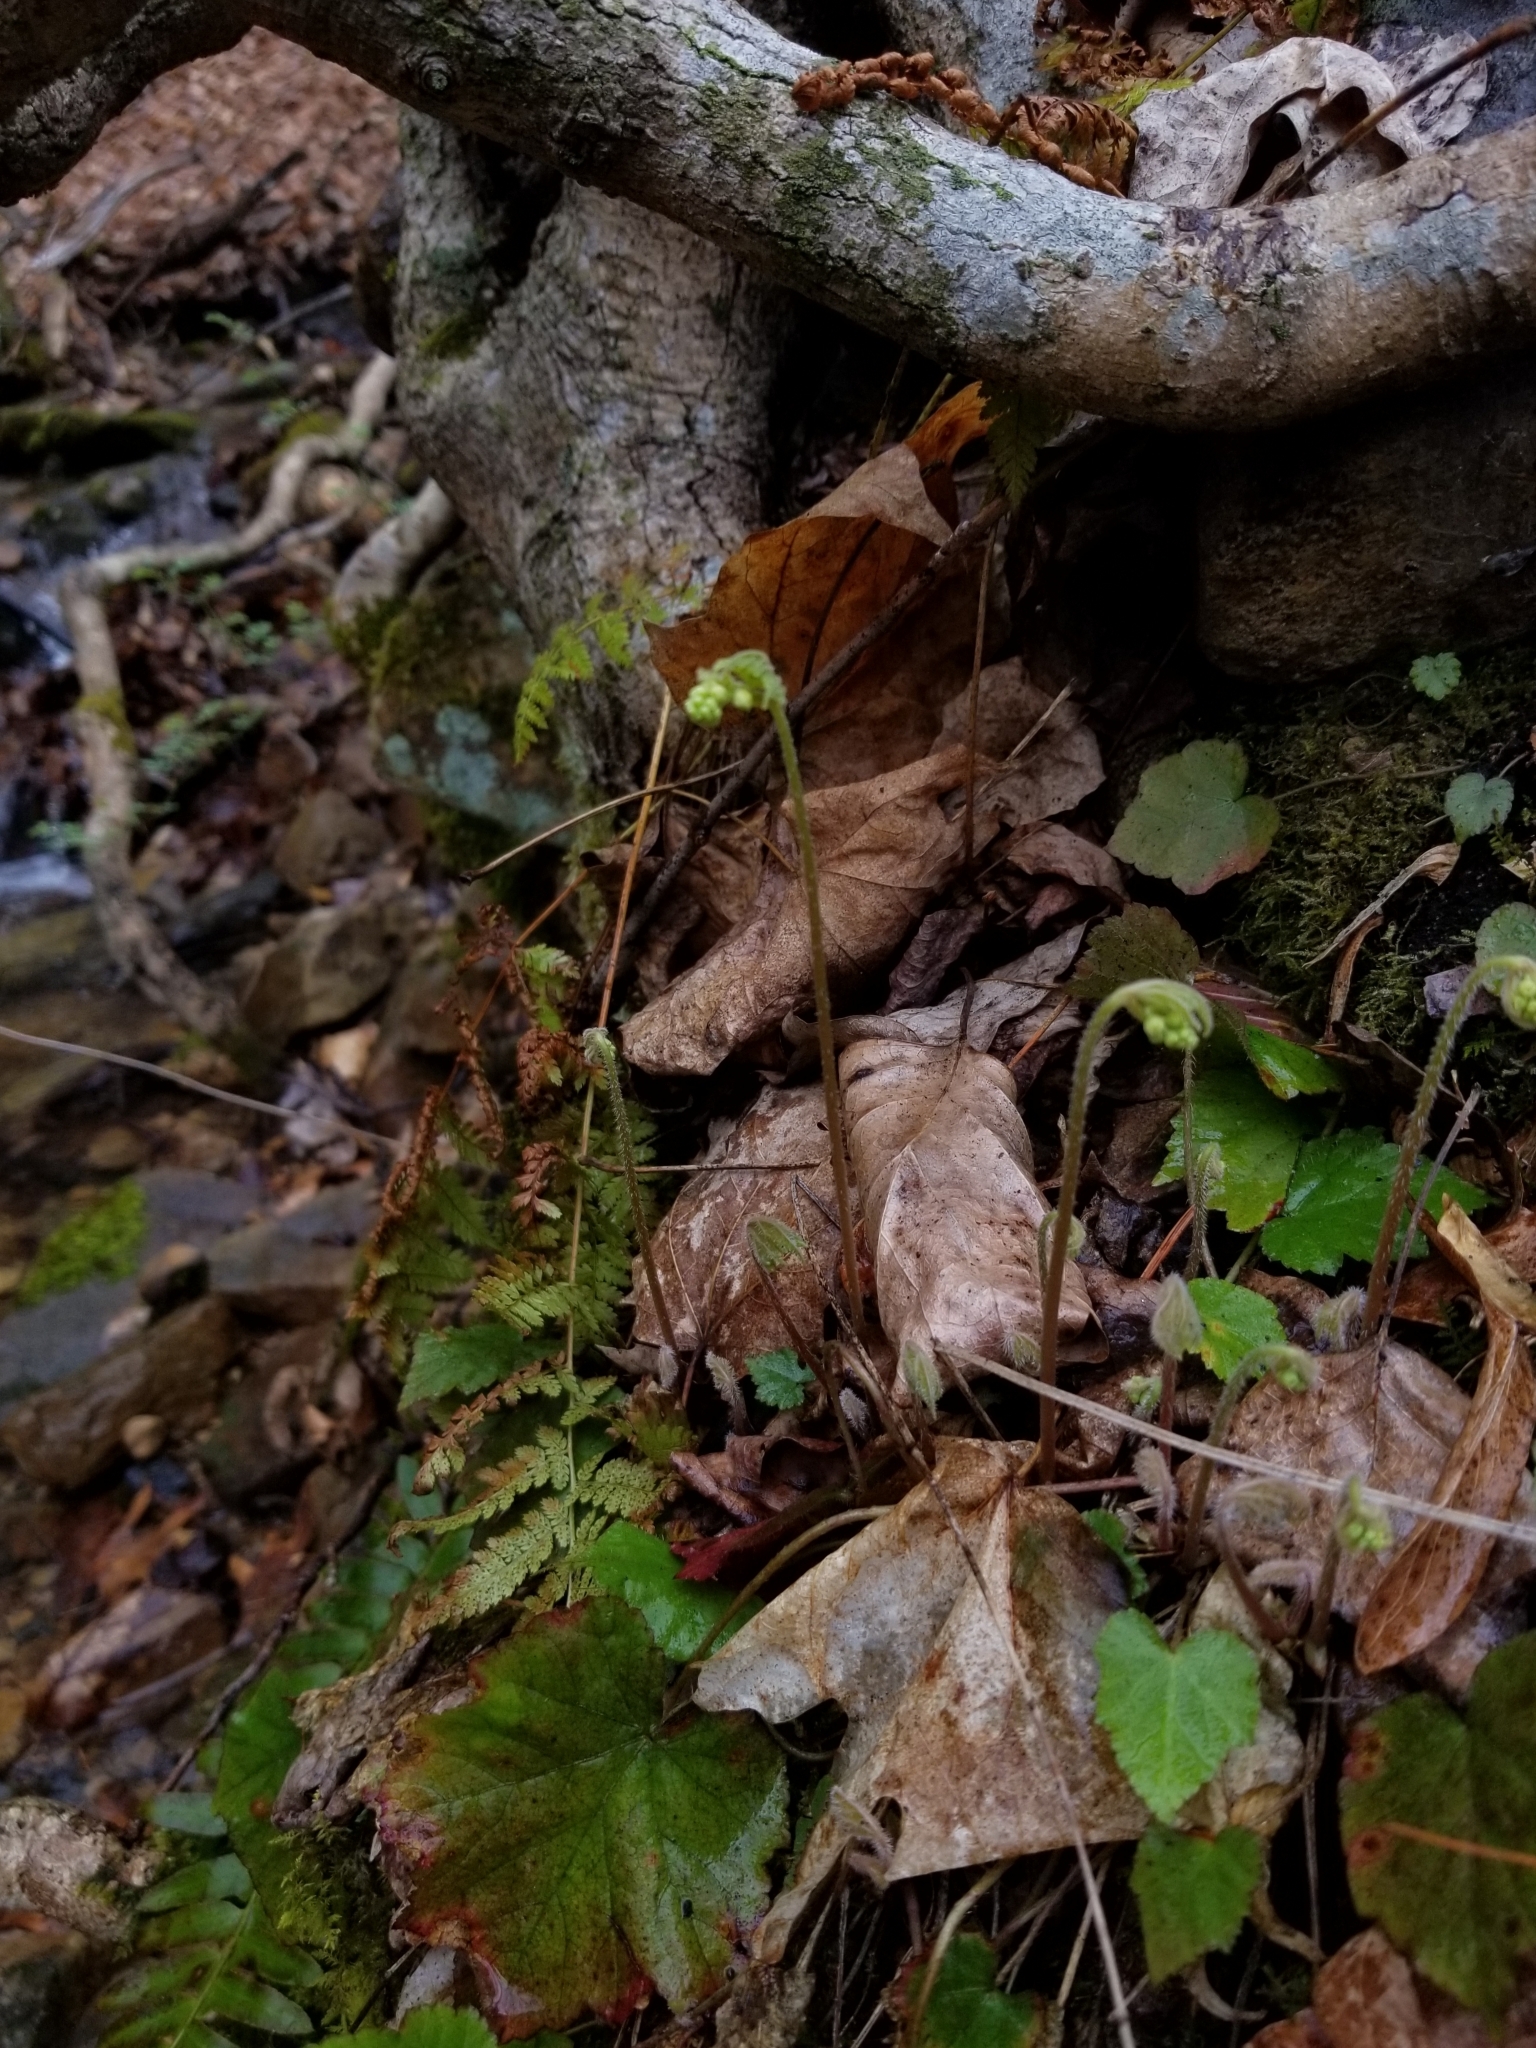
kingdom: Plantae
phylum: Tracheophyta
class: Magnoliopsida
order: Saxifragales
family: Saxifragaceae
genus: Mitella
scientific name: Mitella diphylla
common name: Coolwort
